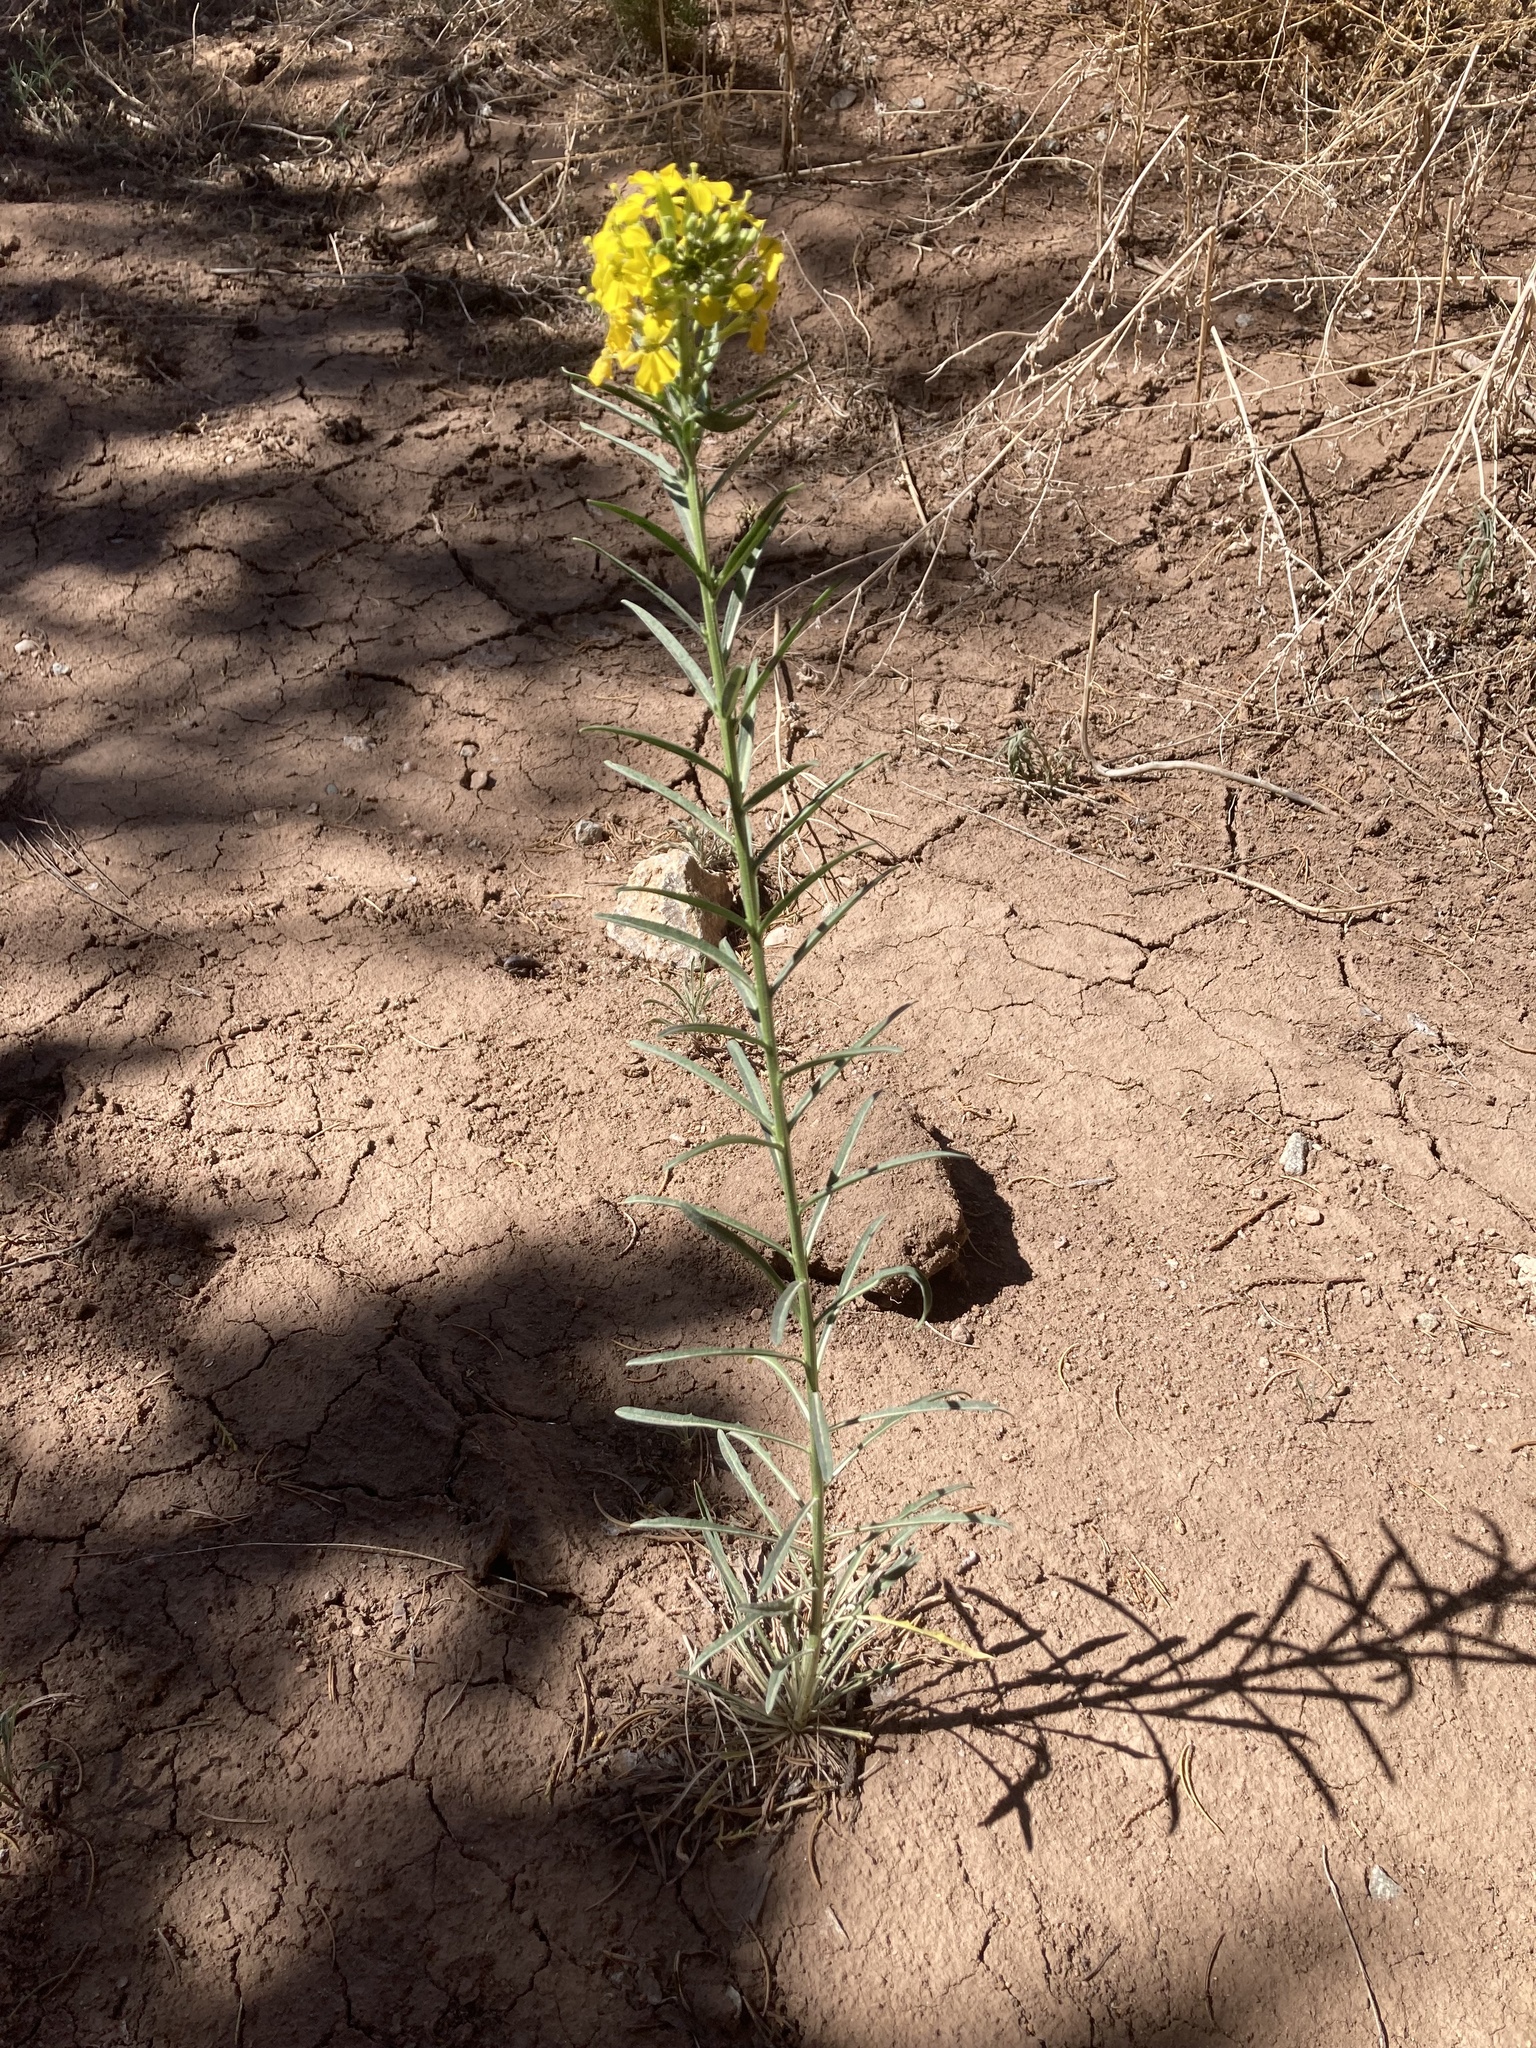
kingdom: Plantae
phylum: Tracheophyta
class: Magnoliopsida
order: Brassicales
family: Brassicaceae
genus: Erysimum
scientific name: Erysimum capitatum
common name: Western wallflower
